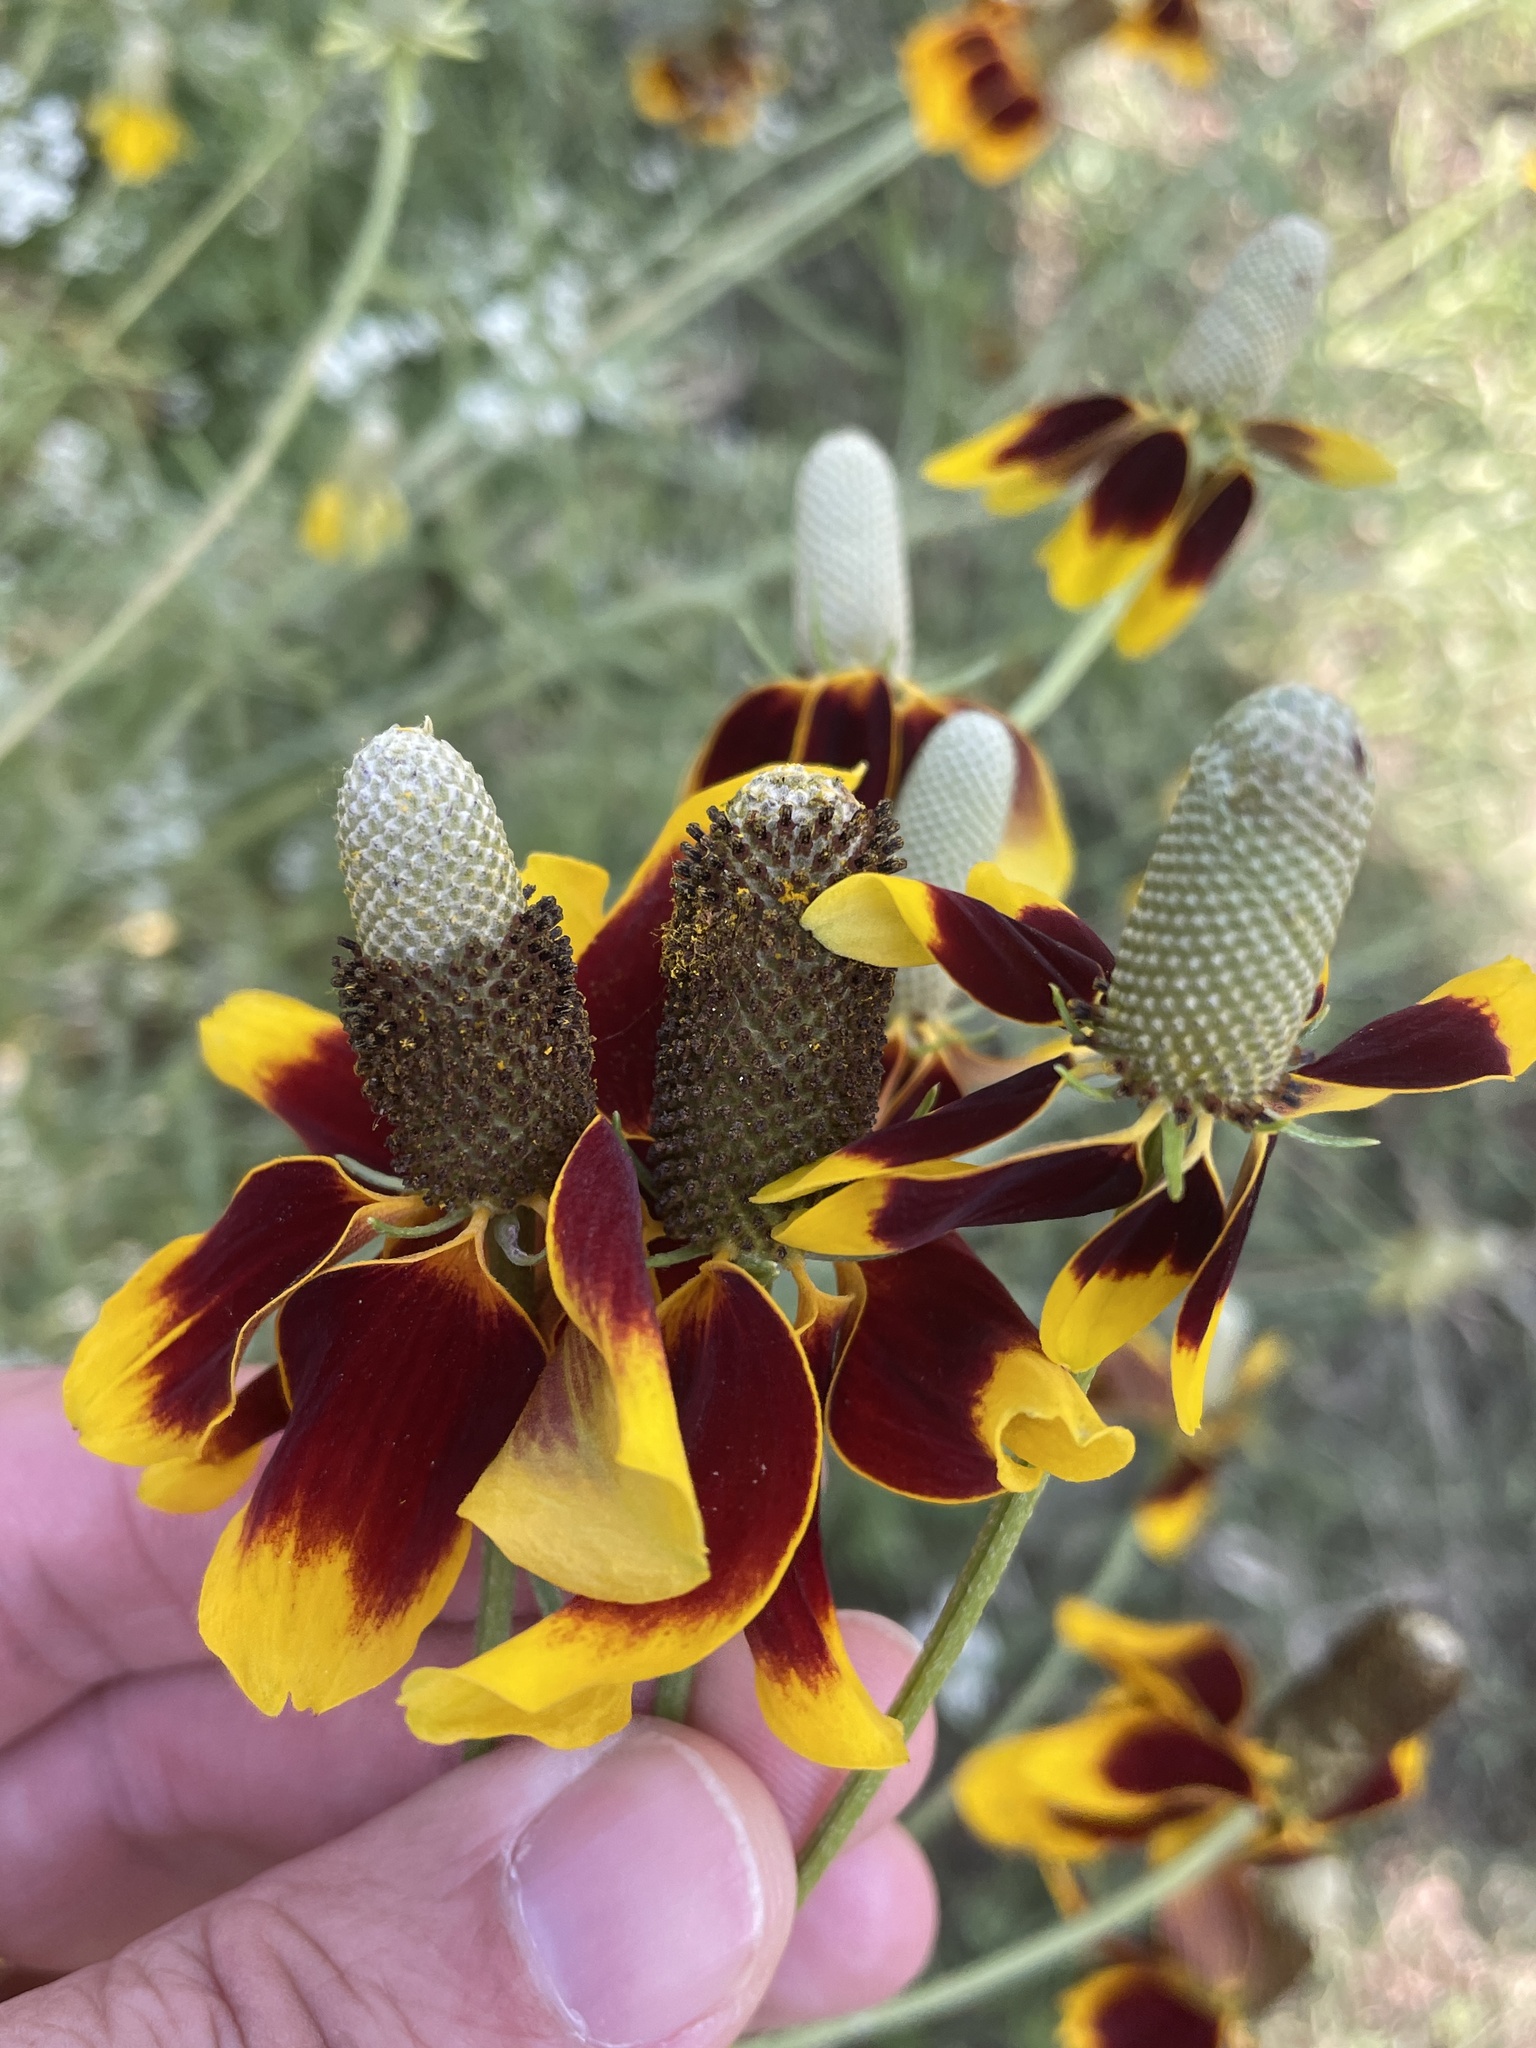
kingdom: Plantae
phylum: Tracheophyta
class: Magnoliopsida
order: Asterales
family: Asteraceae
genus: Ratibida
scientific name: Ratibida columnifera
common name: Prairie coneflower
